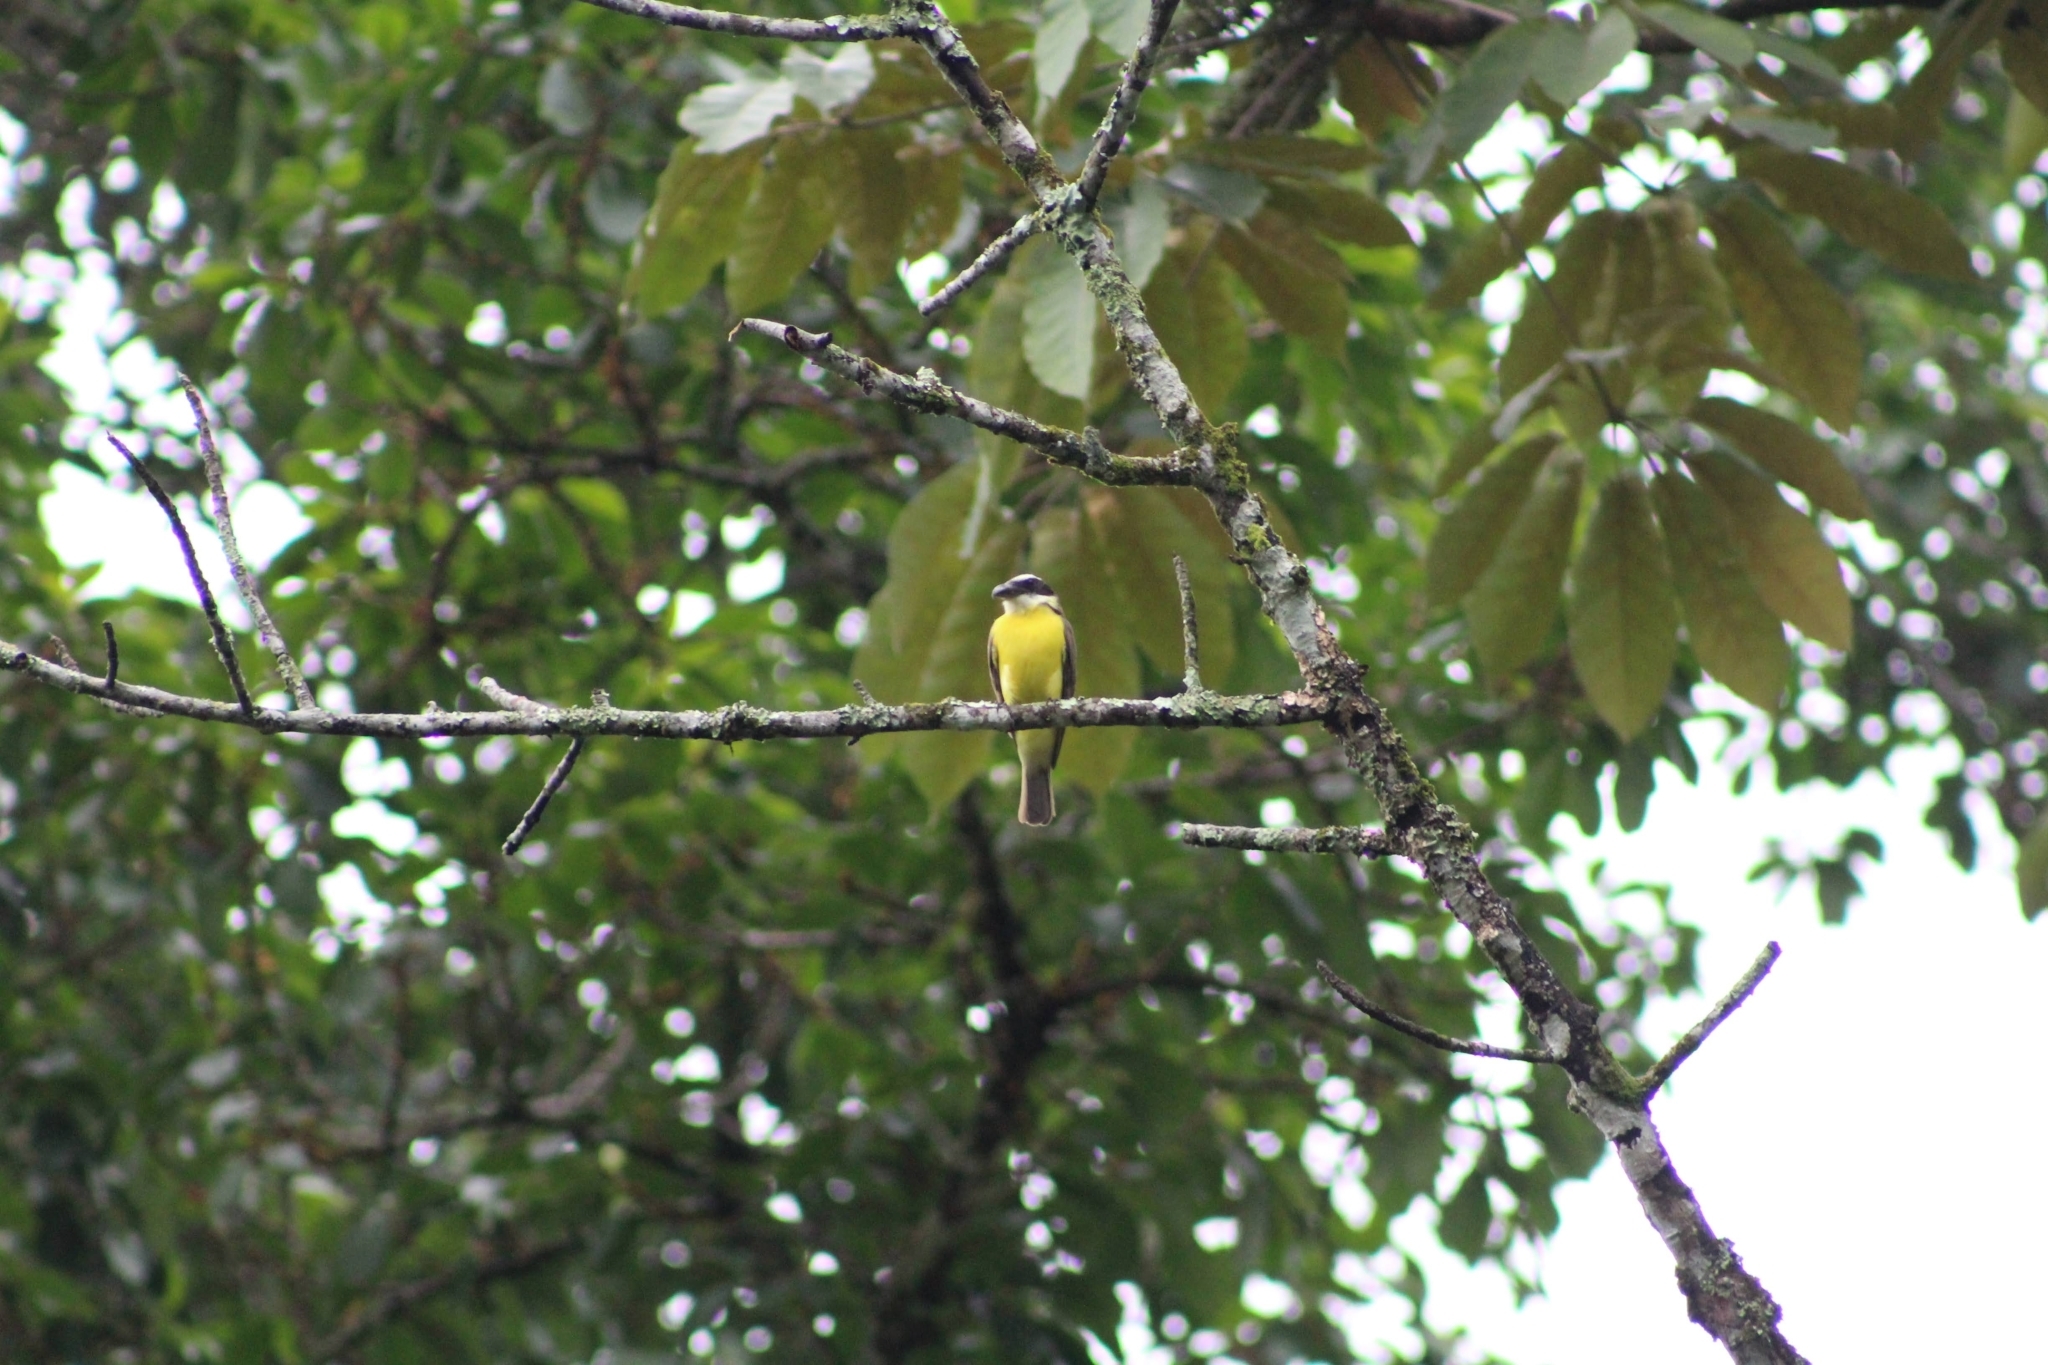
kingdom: Animalia
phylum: Chordata
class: Aves
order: Passeriformes
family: Tyrannidae
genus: Megarynchus
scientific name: Megarynchus pitangua
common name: Boat-billed flycatcher
